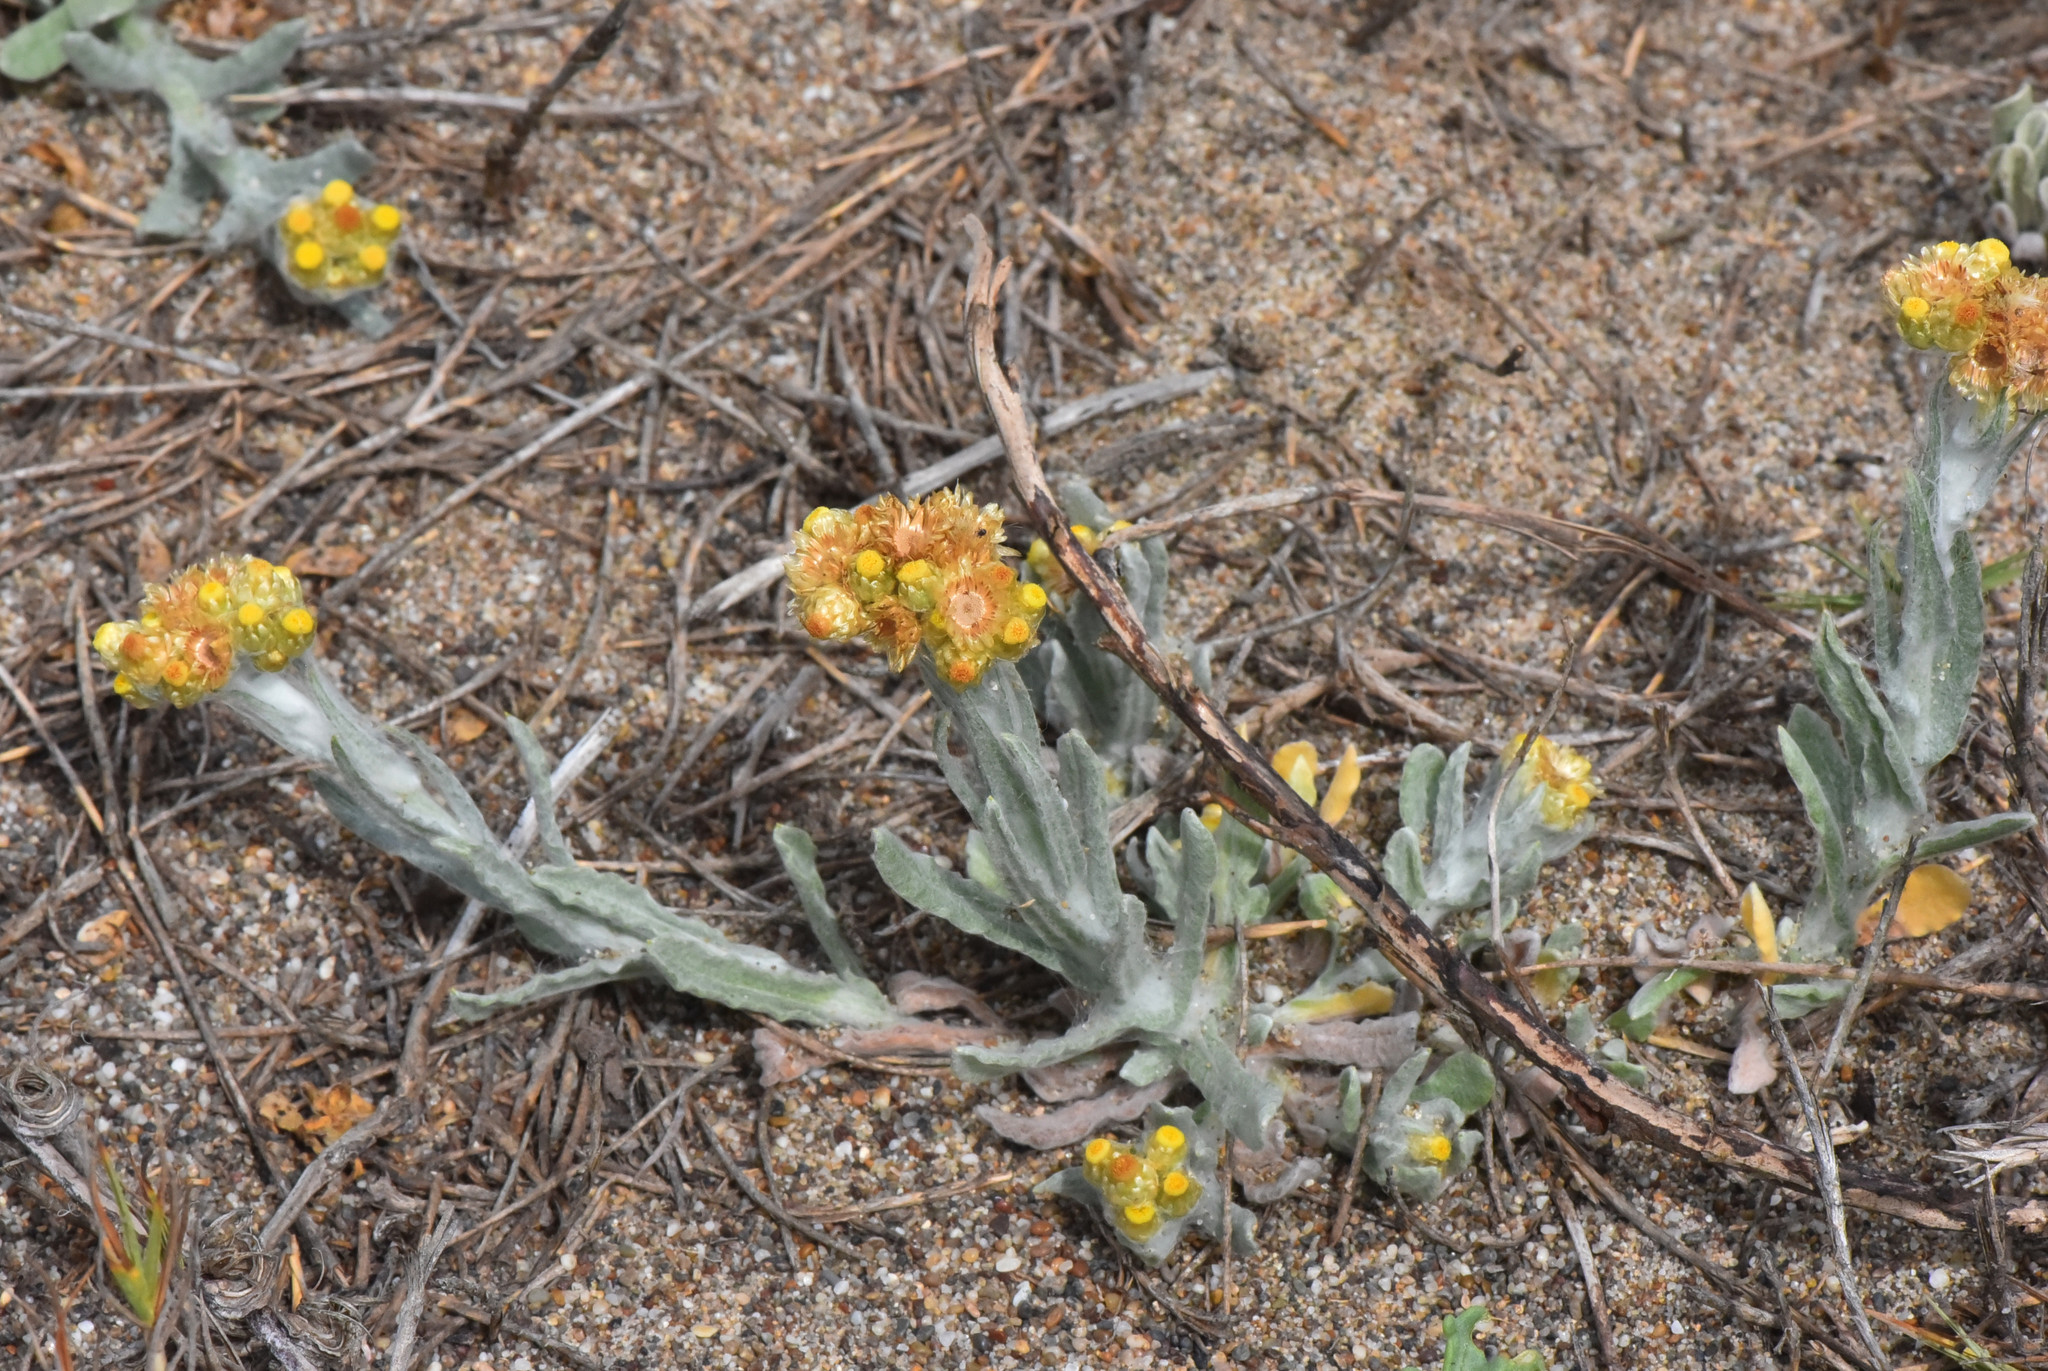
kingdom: Plantae
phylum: Tracheophyta
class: Magnoliopsida
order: Asterales
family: Asteraceae
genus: Pseudognaphalium
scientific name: Pseudognaphalium stramineum
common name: Cotton-batting-plant
